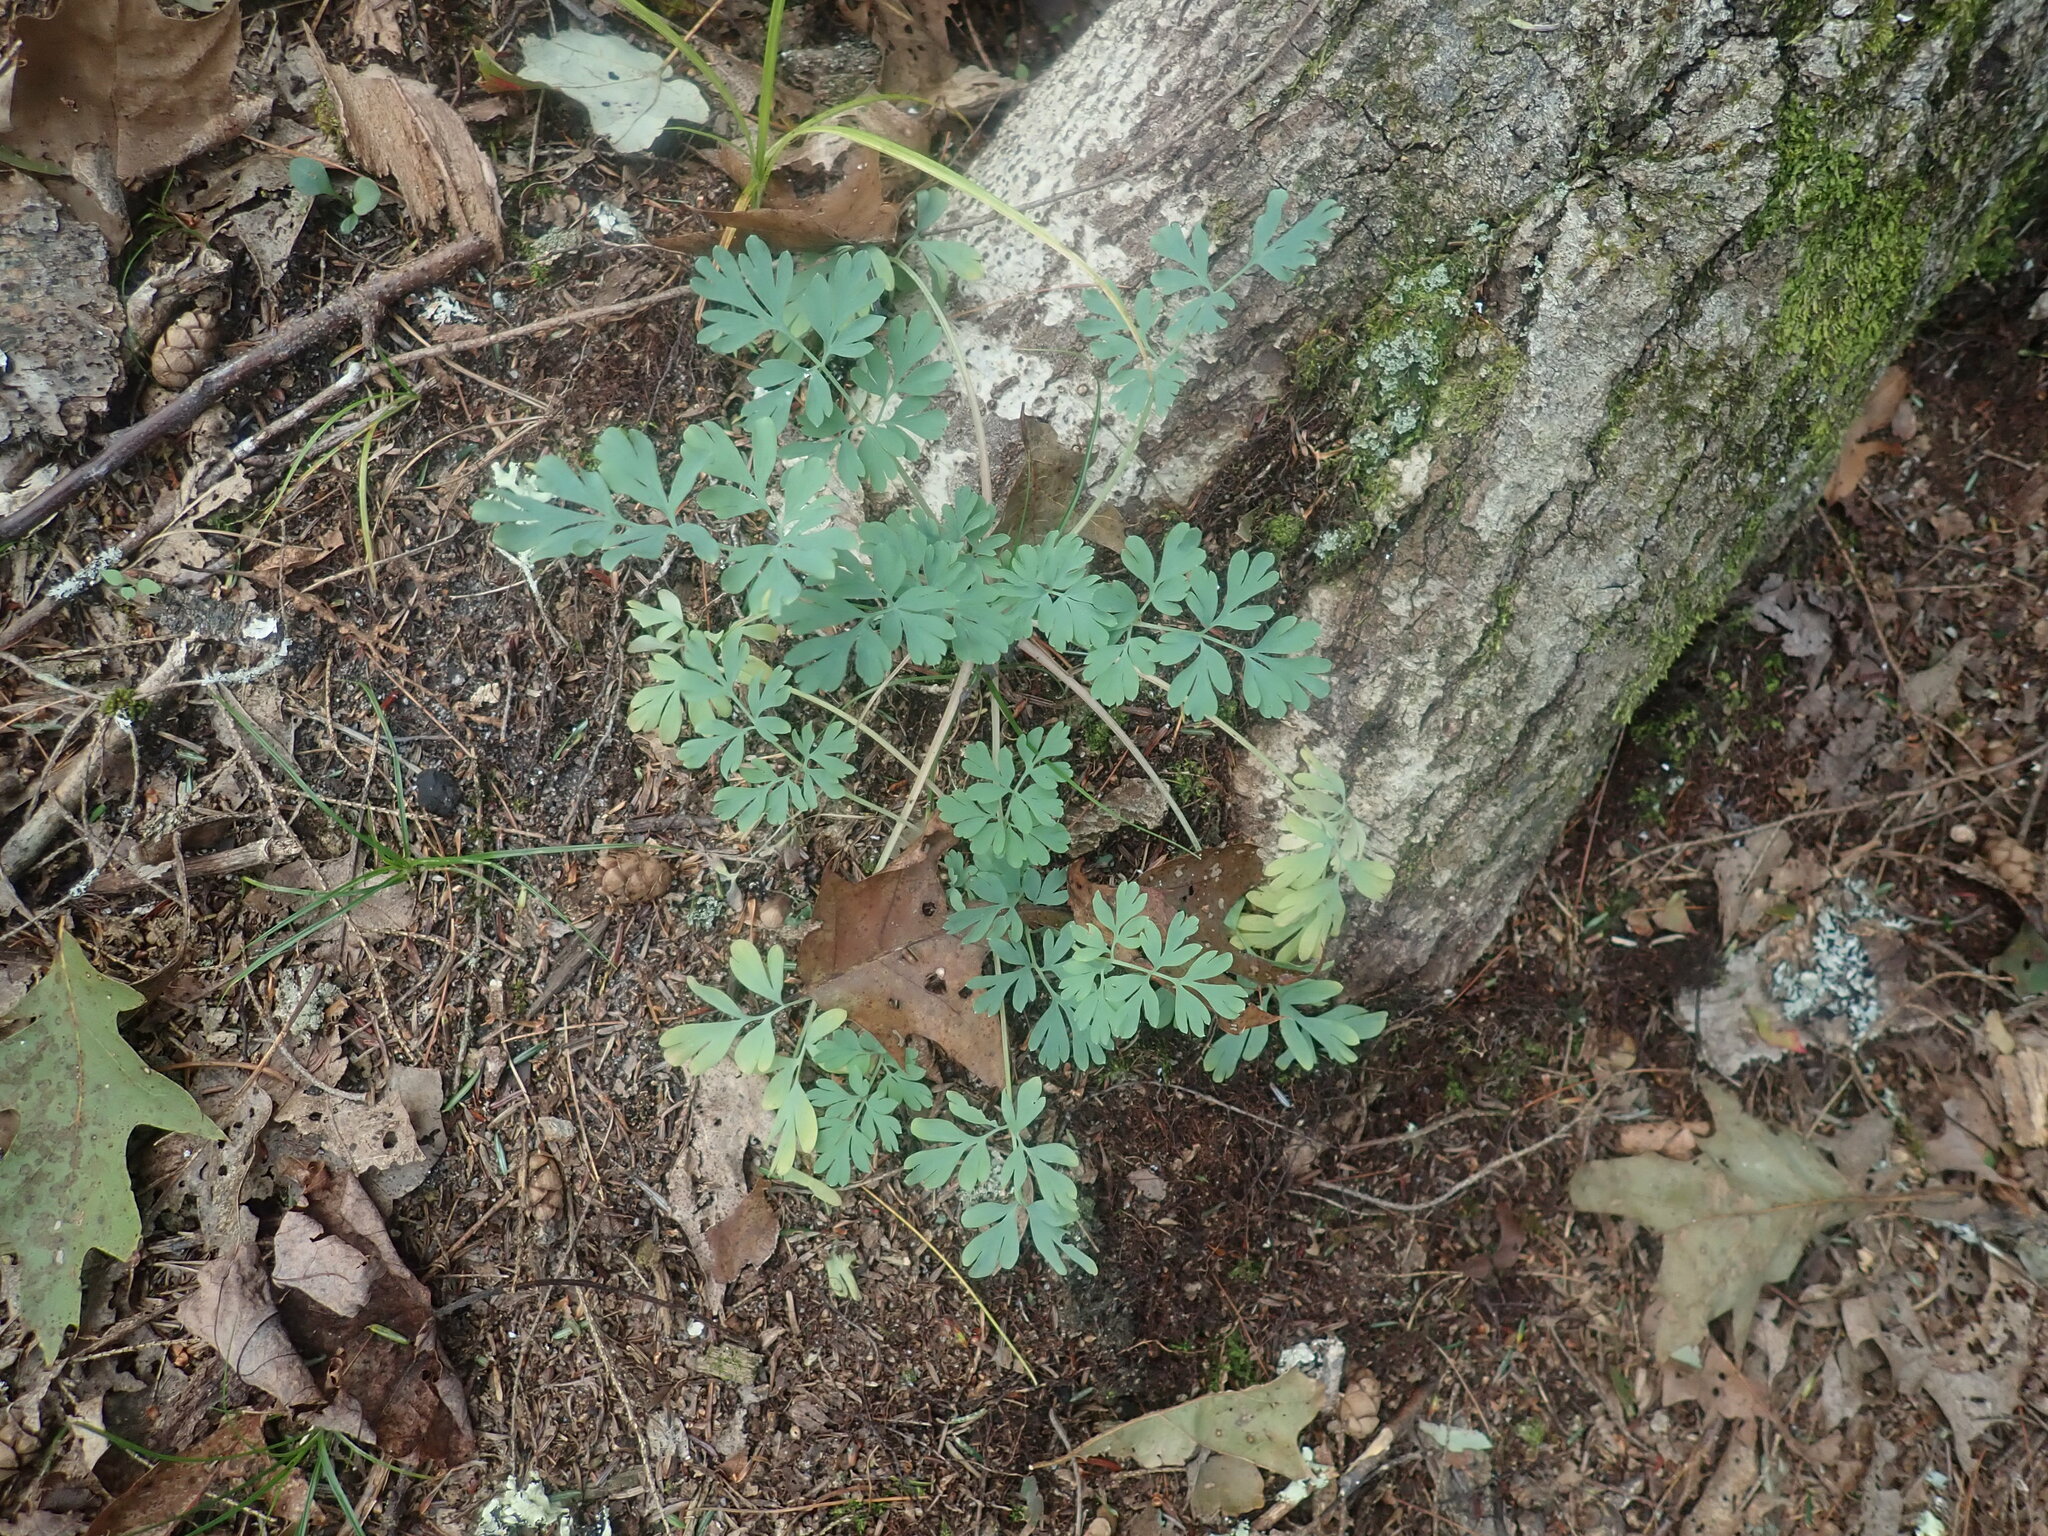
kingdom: Plantae
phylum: Tracheophyta
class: Magnoliopsida
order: Ranunculales
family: Papaveraceae
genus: Capnoides
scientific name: Capnoides sempervirens
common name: Rock harlequin
